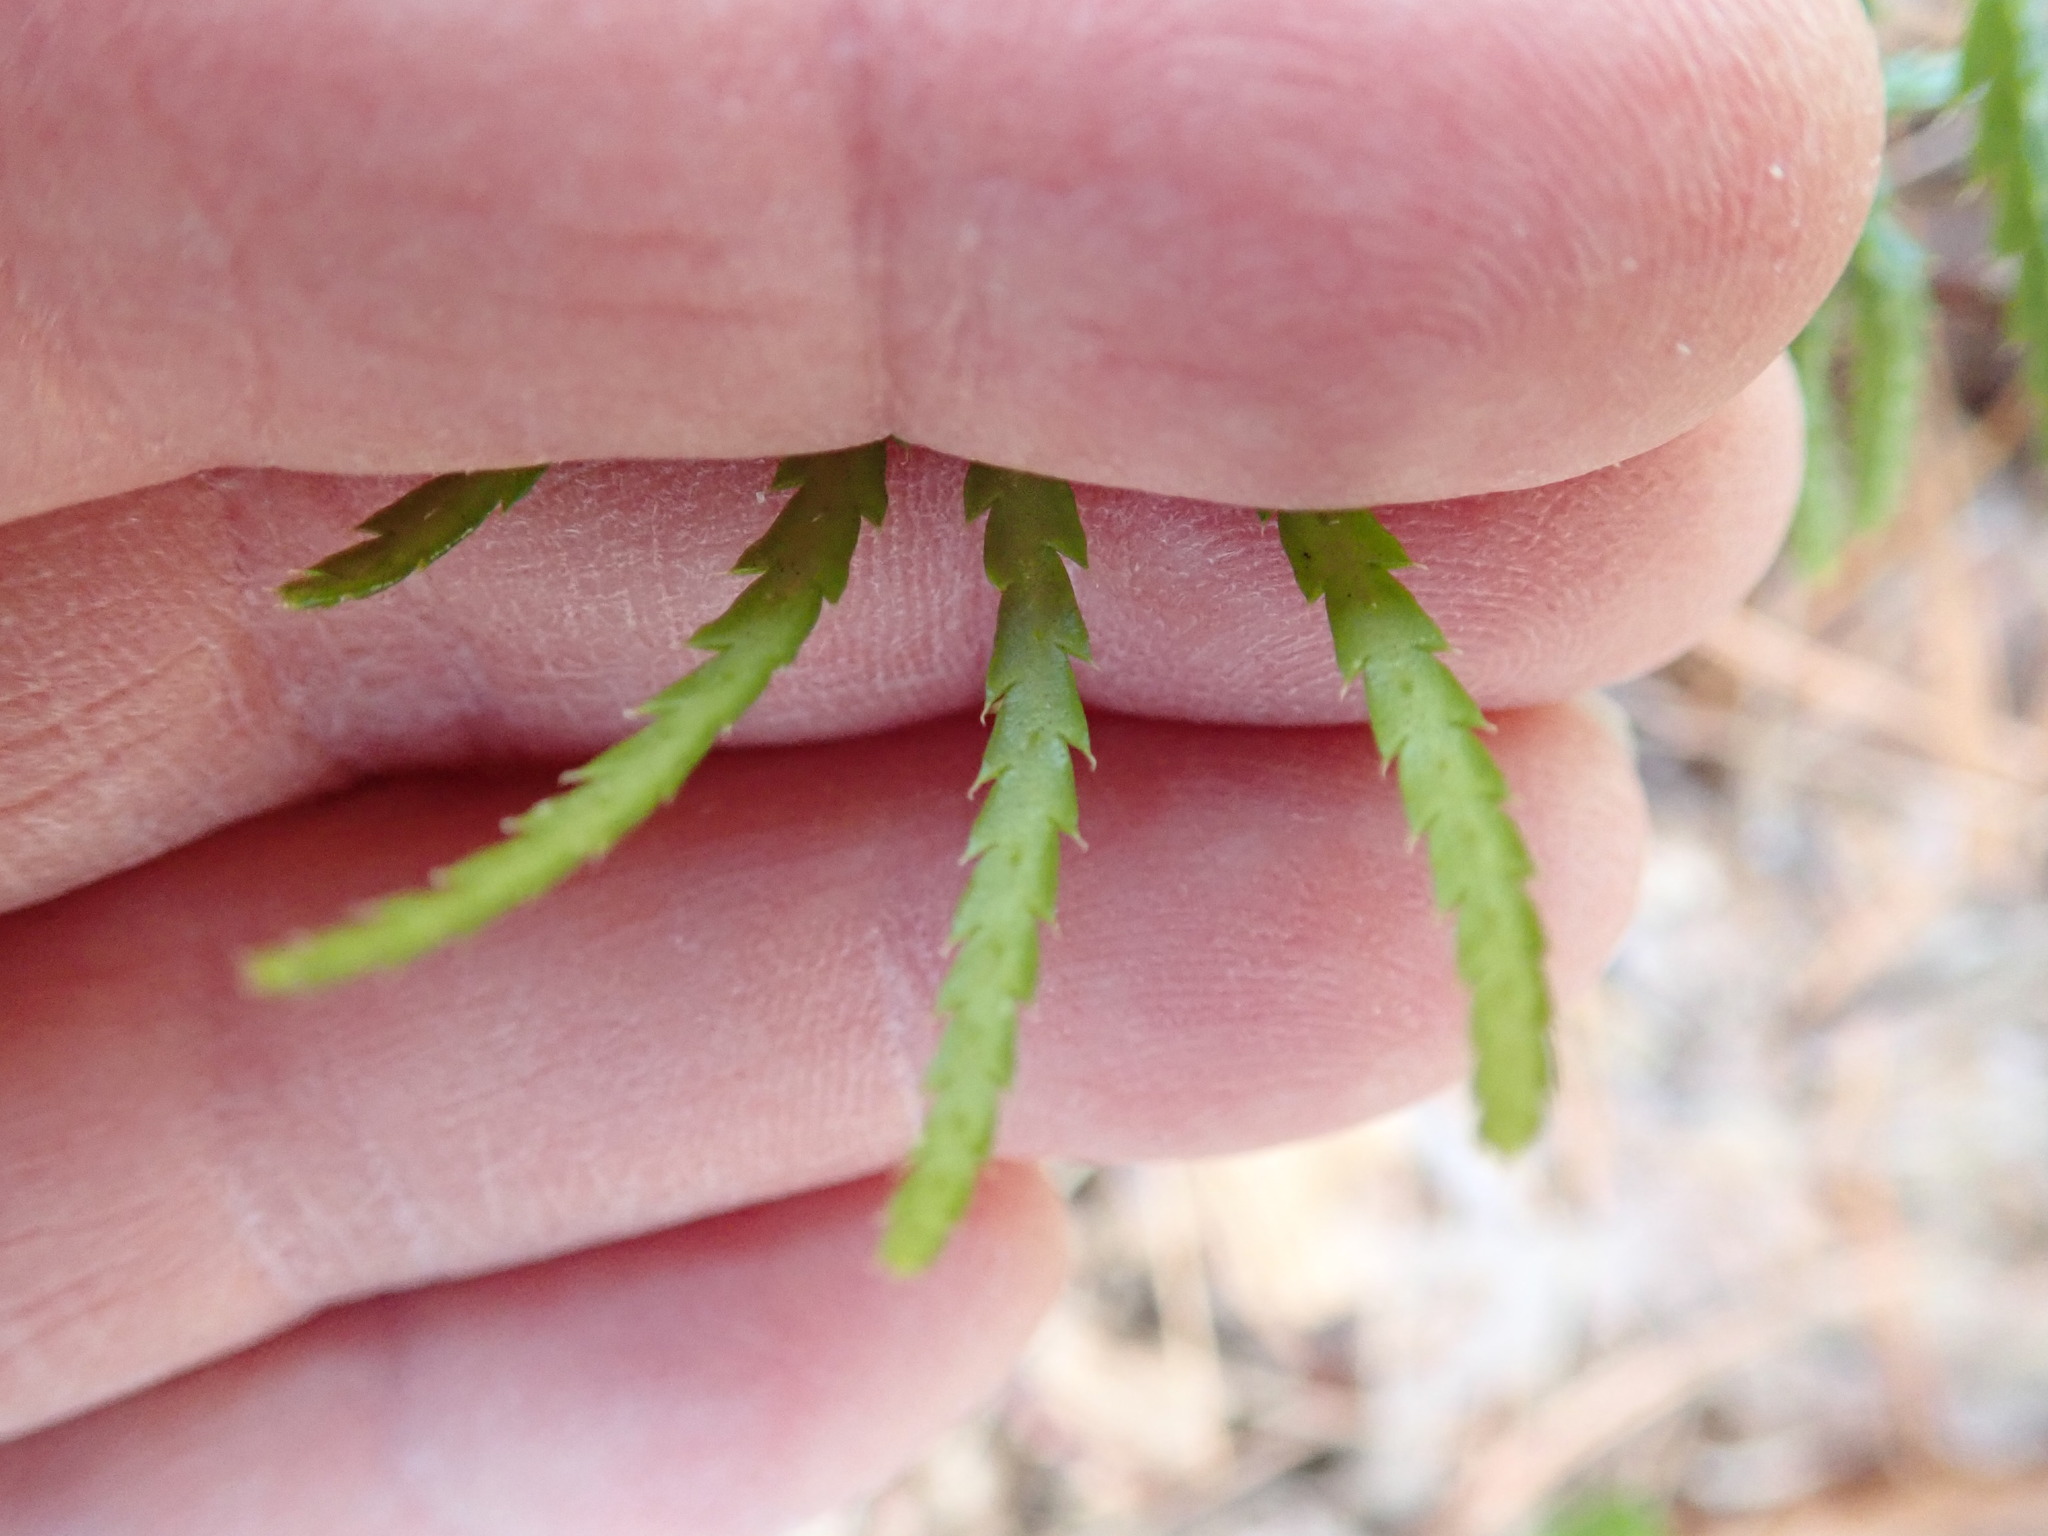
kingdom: Plantae
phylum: Tracheophyta
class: Lycopodiopsida
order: Lycopodiales
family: Lycopodiaceae
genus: Diphasiastrum
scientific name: Diphasiastrum digitatum
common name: Southern running-pine
